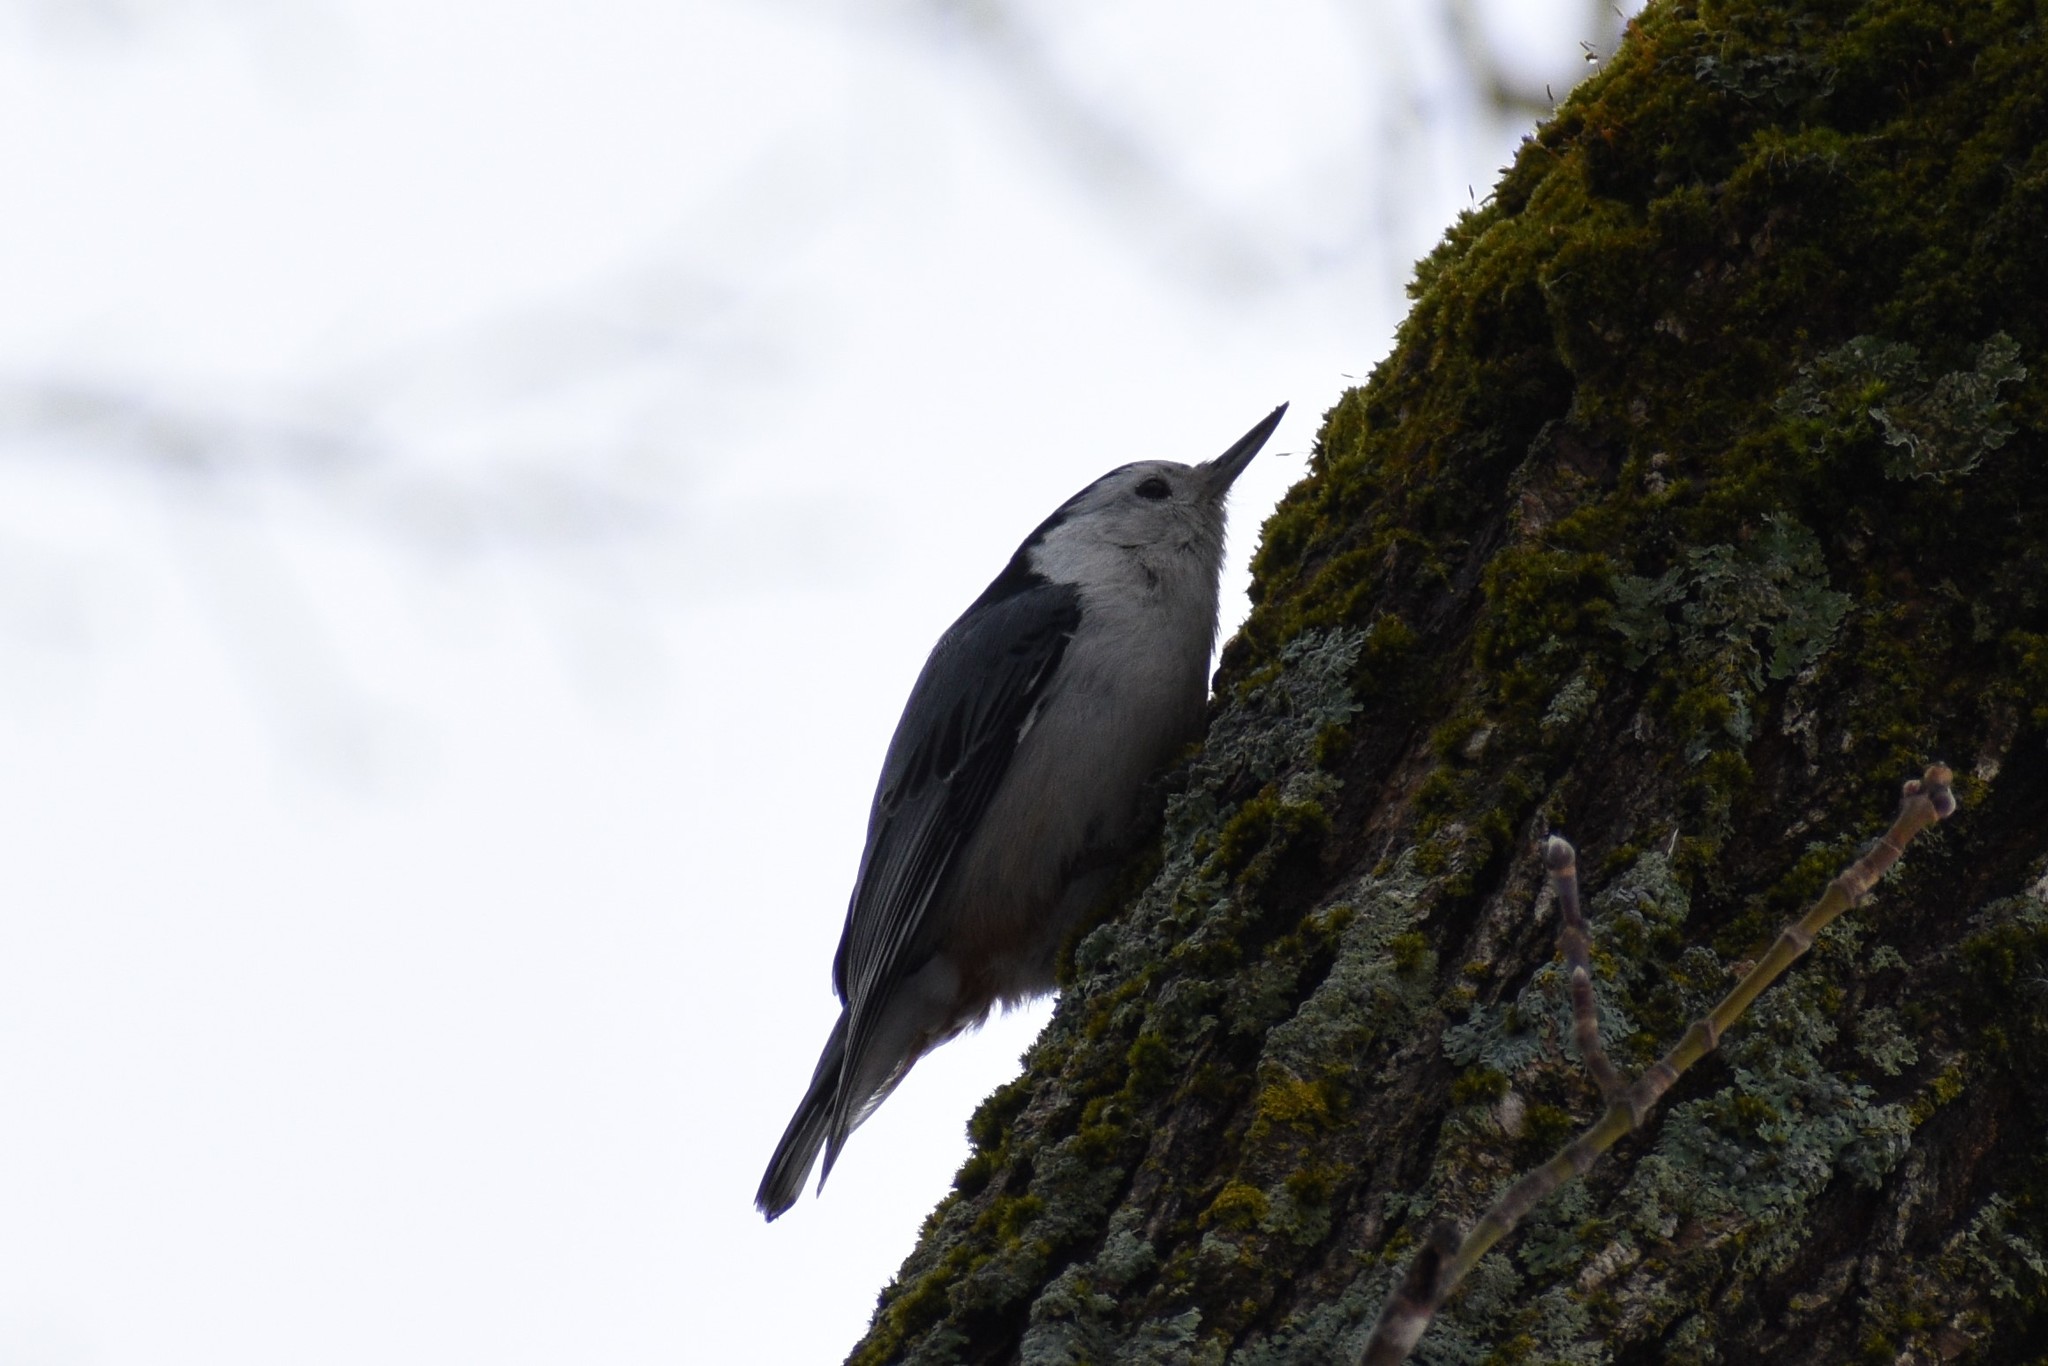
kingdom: Animalia
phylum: Chordata
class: Aves
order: Passeriformes
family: Sittidae
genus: Sitta
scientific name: Sitta carolinensis
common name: White-breasted nuthatch
